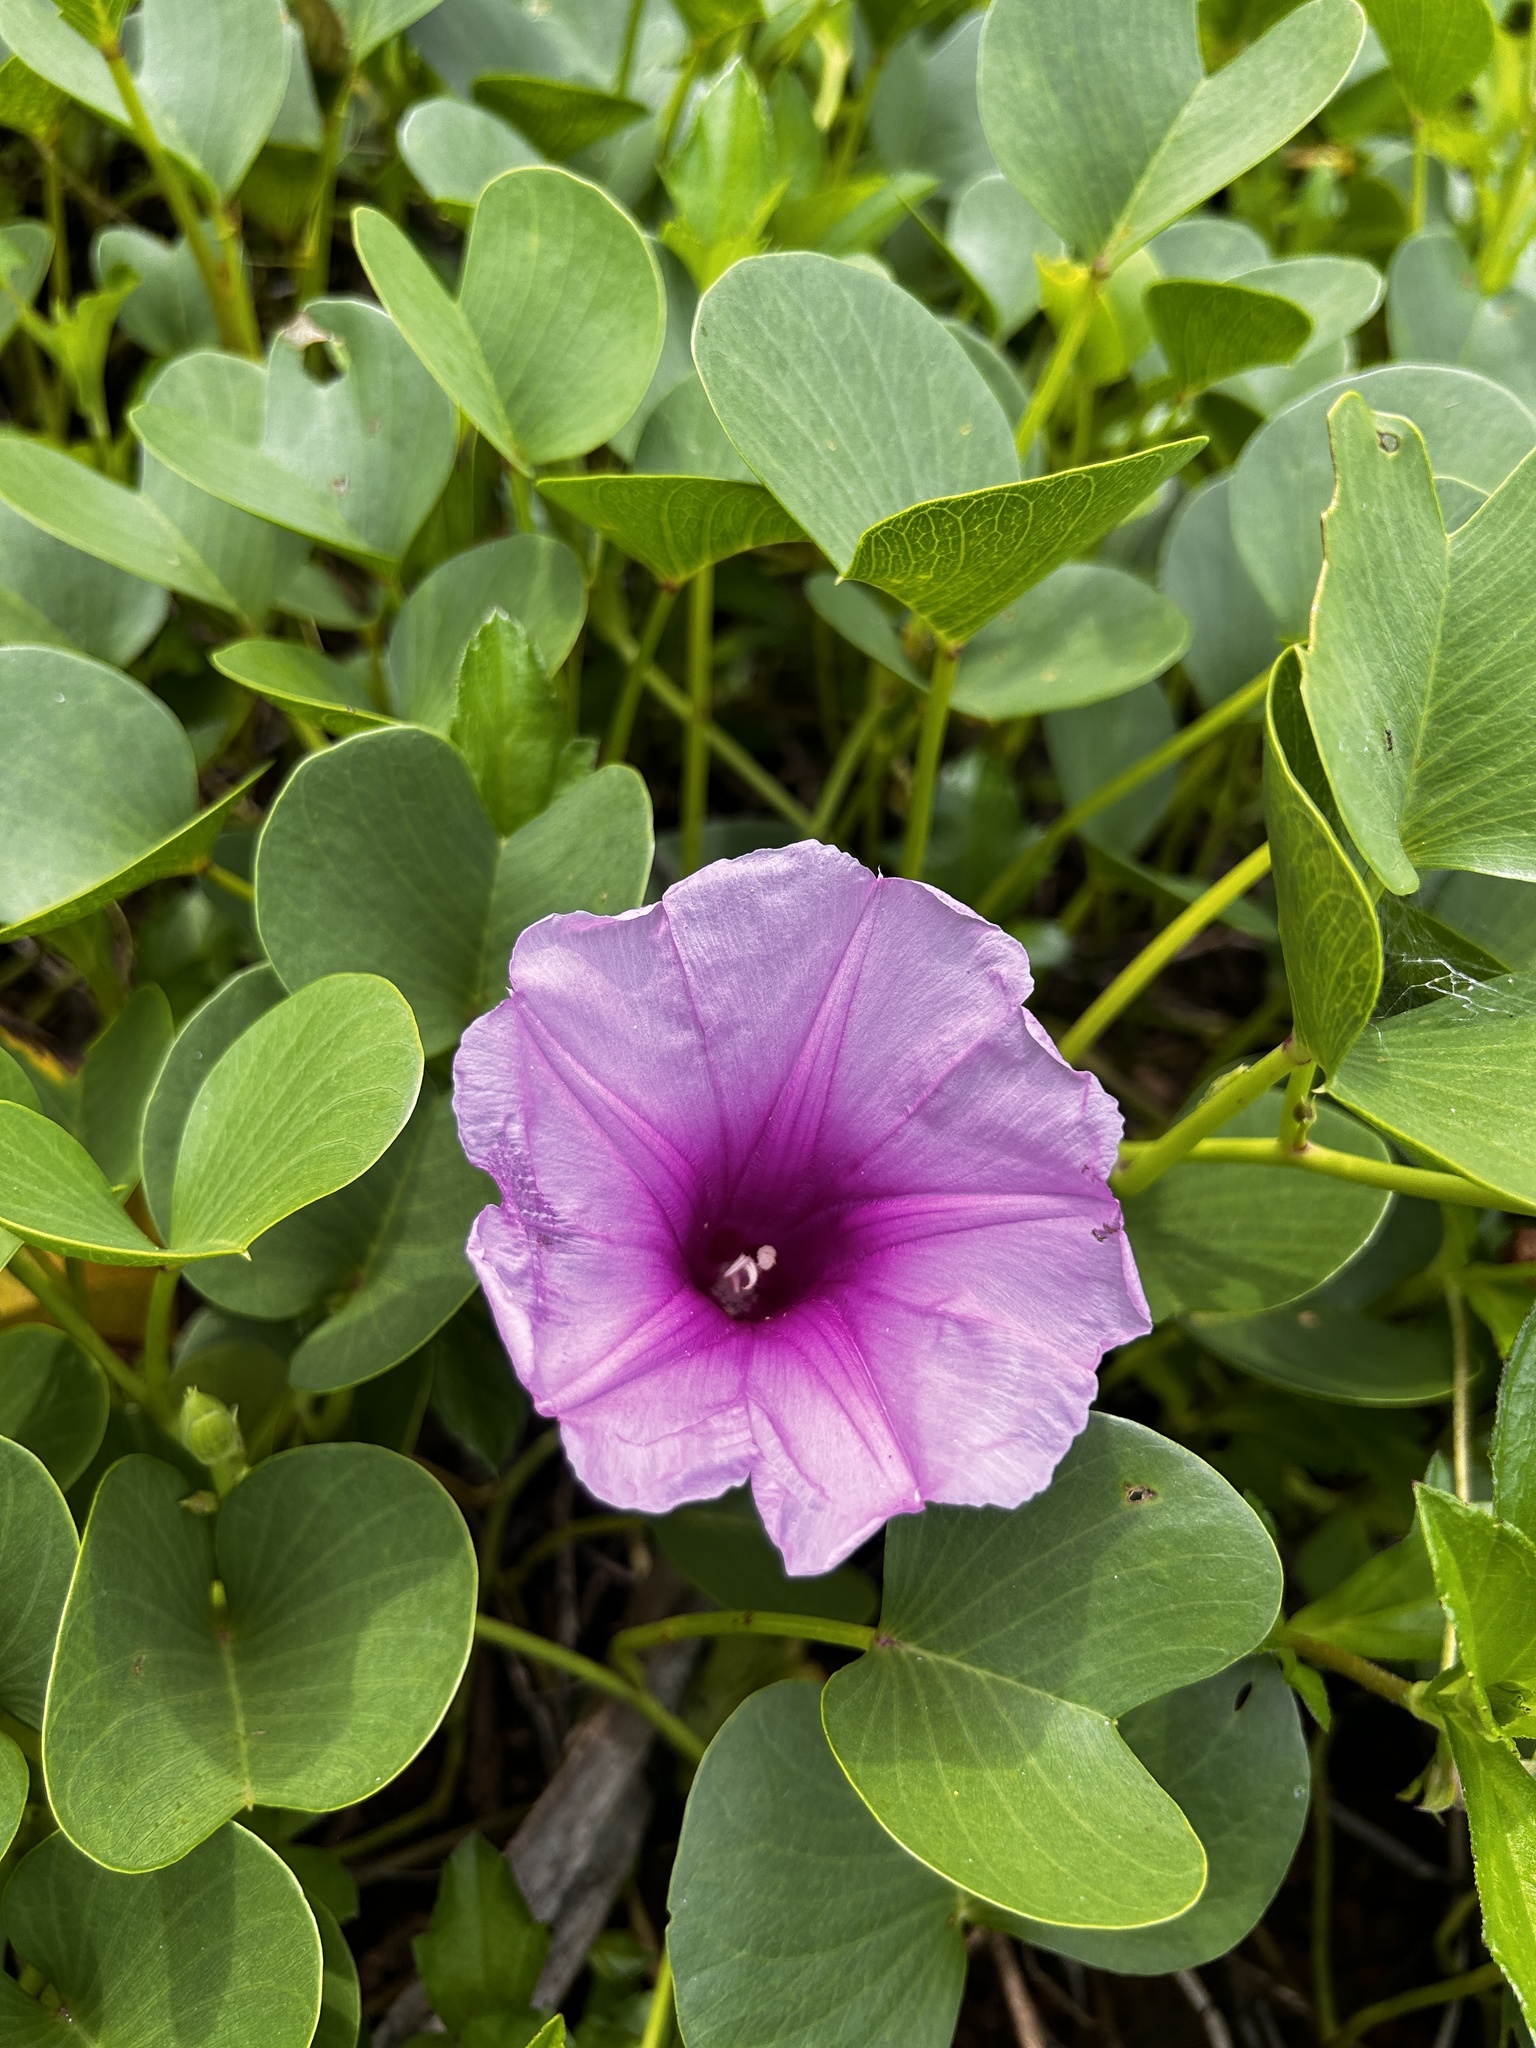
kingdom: Plantae
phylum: Tracheophyta
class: Magnoliopsida
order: Solanales
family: Convolvulaceae
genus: Ipomoea
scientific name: Ipomoea pes-caprae
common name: Beach morning glory
